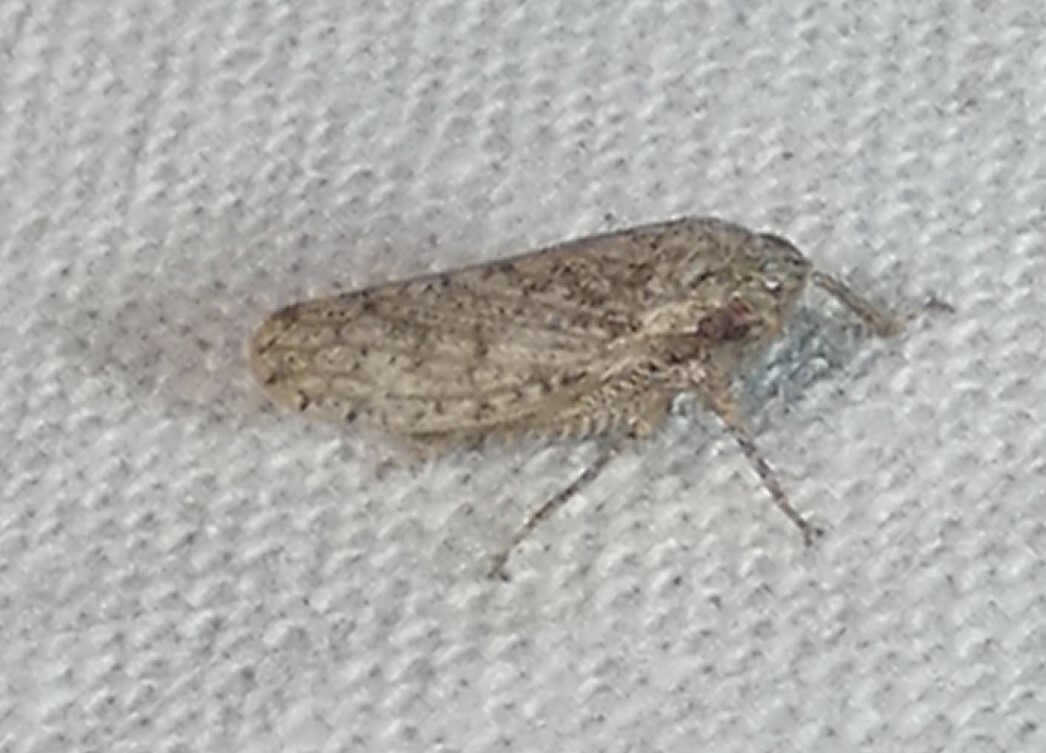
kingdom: Animalia
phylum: Arthropoda
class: Insecta
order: Hemiptera
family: Cicadellidae
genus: Curtara
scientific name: Curtara insularis
